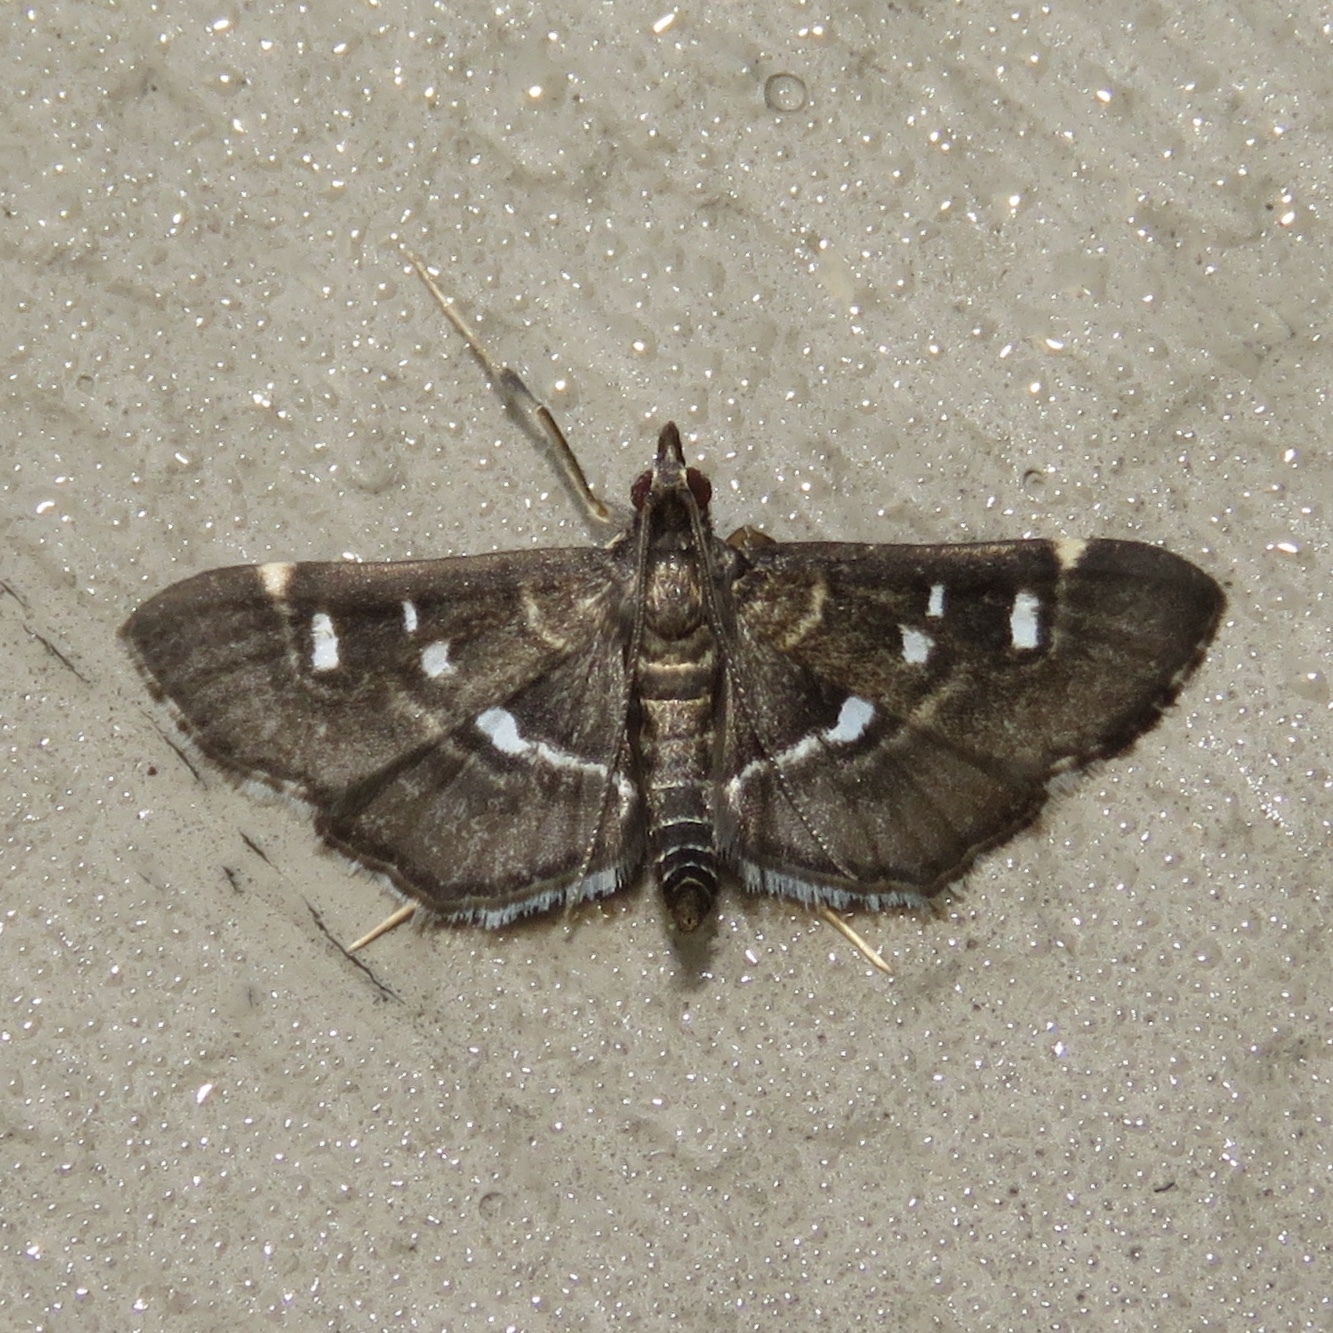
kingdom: Animalia
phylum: Arthropoda
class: Insecta
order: Lepidoptera
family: Crambidae
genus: Diathrausta
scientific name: Diathrausta harlequinalis
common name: Harlequin webworm moth
